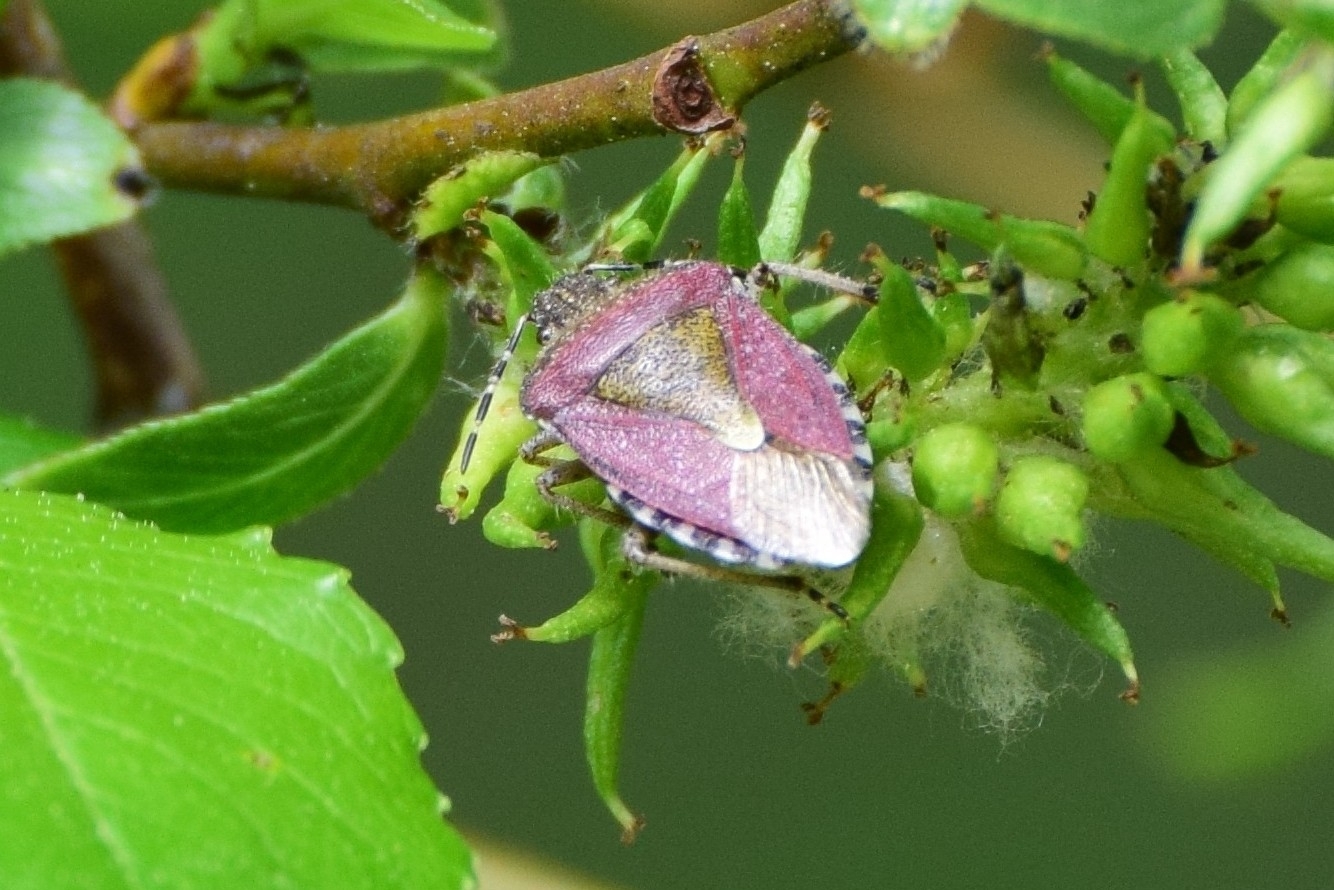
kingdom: Animalia
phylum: Arthropoda
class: Insecta
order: Hemiptera
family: Pentatomidae
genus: Dolycoris
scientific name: Dolycoris baccarum
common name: Sloe bug
